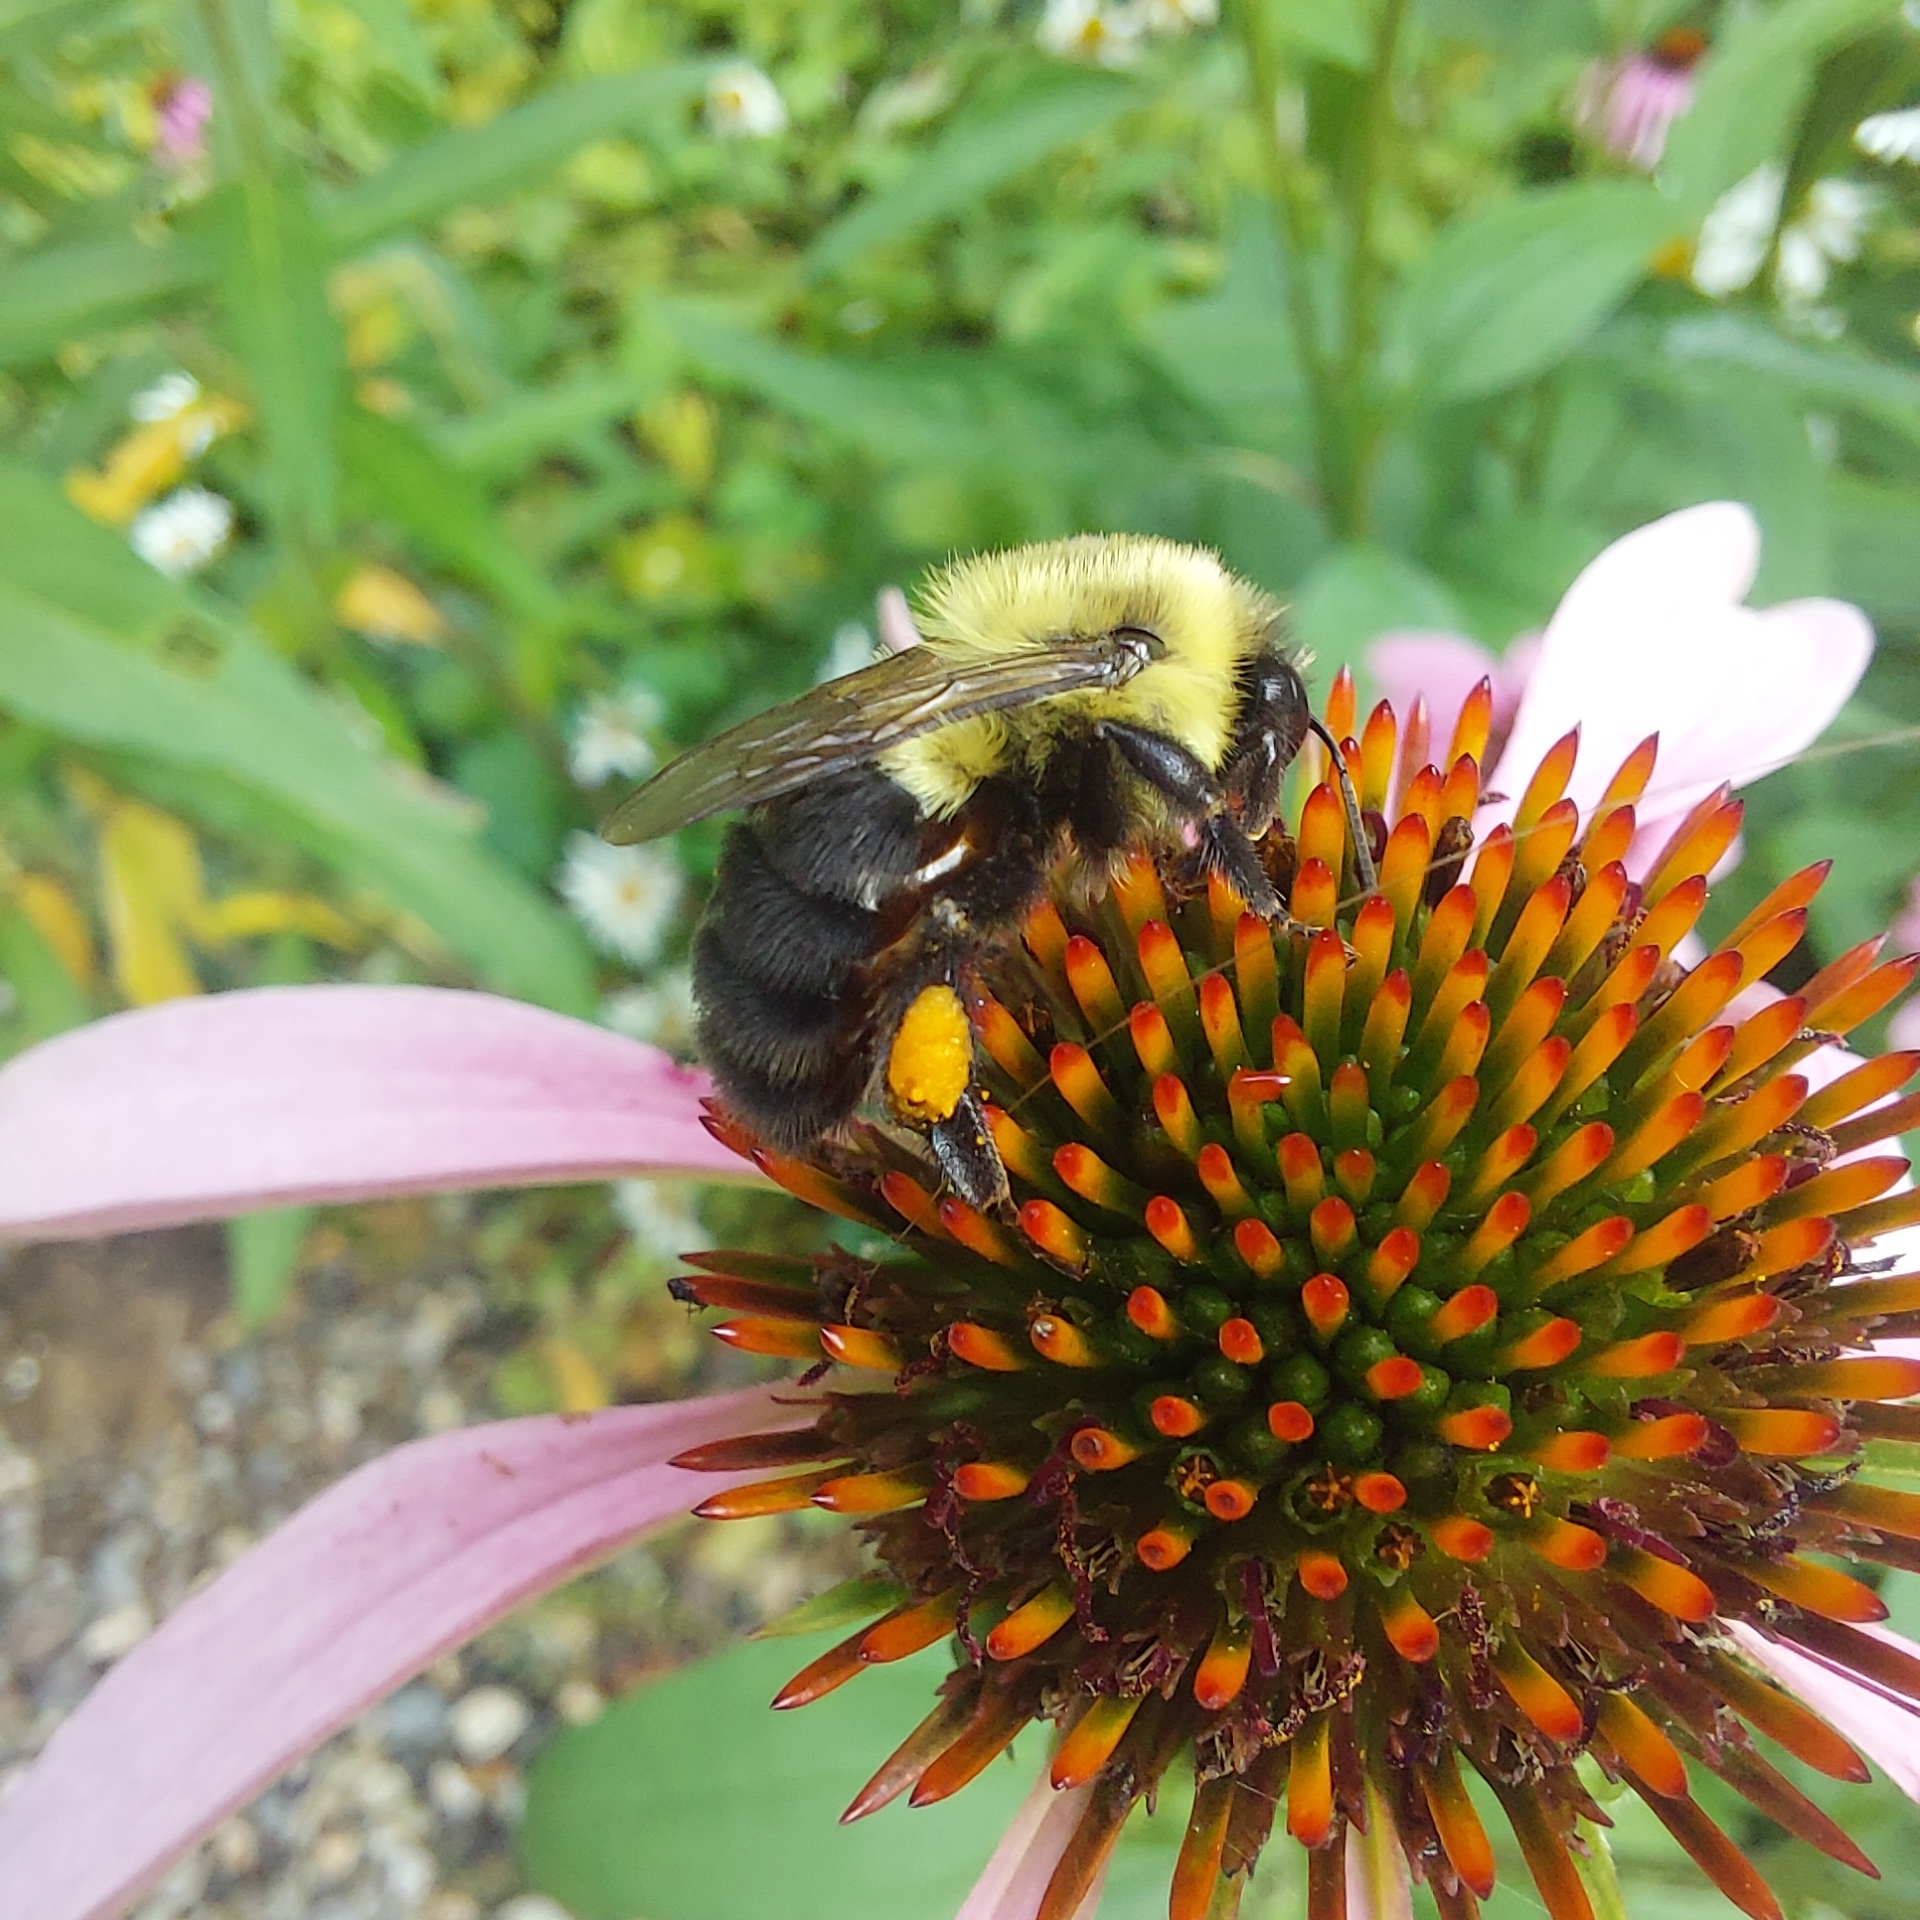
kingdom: Animalia
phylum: Arthropoda
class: Insecta
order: Hymenoptera
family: Apidae
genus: Bombus
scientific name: Bombus impatiens
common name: Common eastern bumble bee
